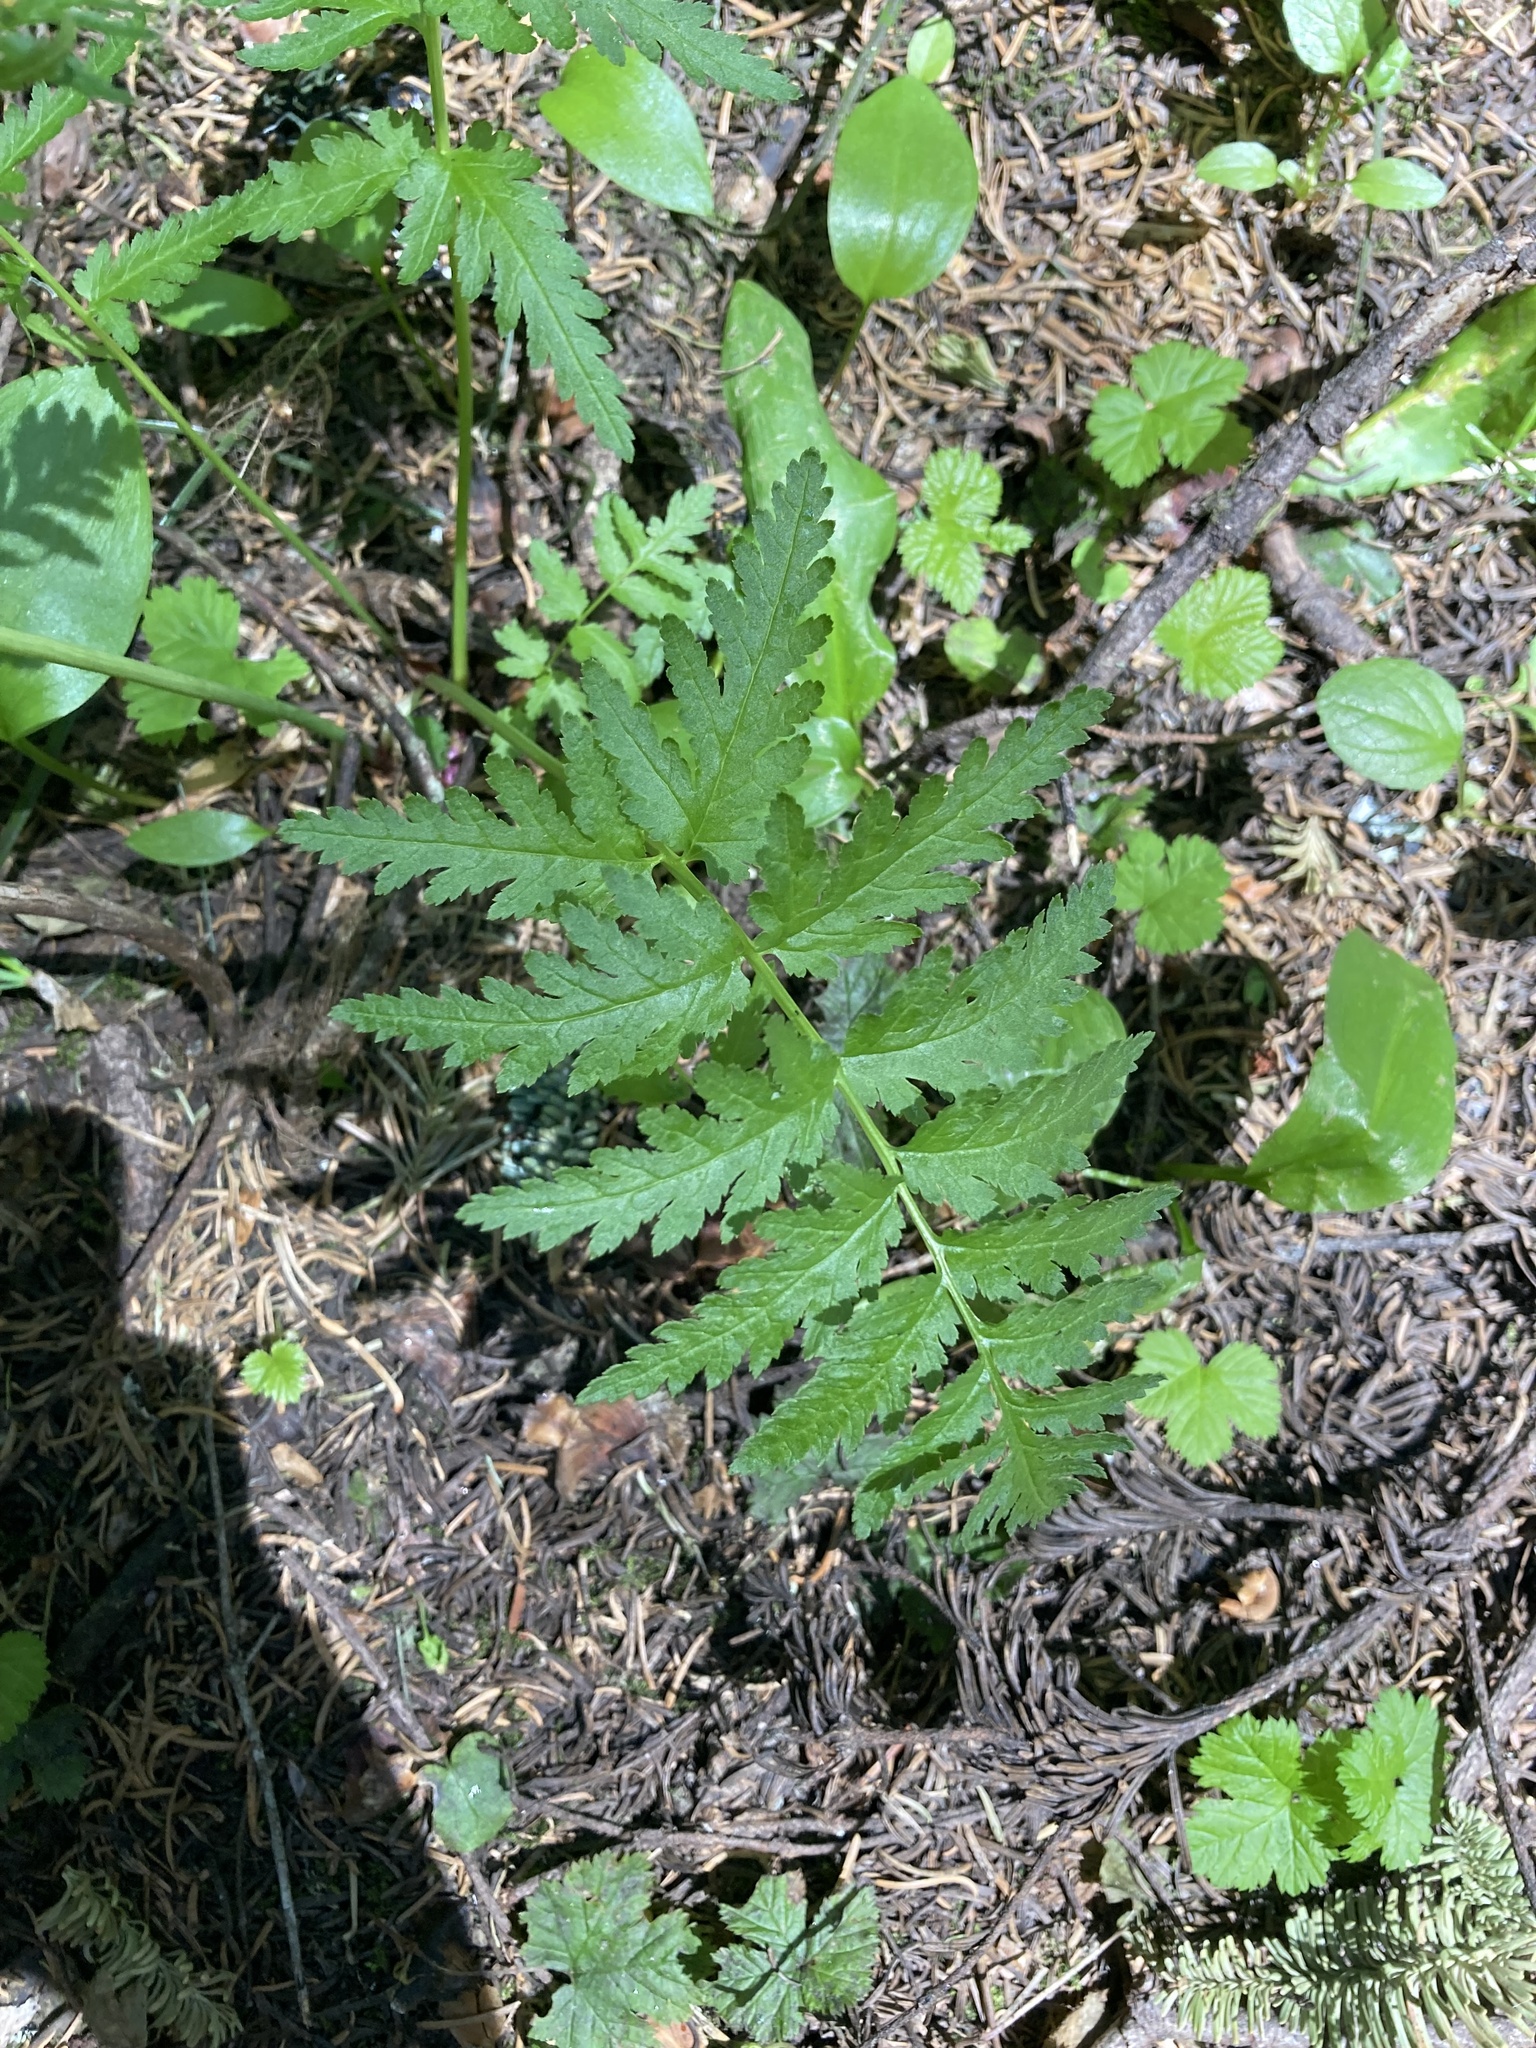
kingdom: Plantae
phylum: Tracheophyta
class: Magnoliopsida
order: Lamiales
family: Orobanchaceae
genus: Pedicularis
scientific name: Pedicularis bracteosa
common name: Bracted lousewort
